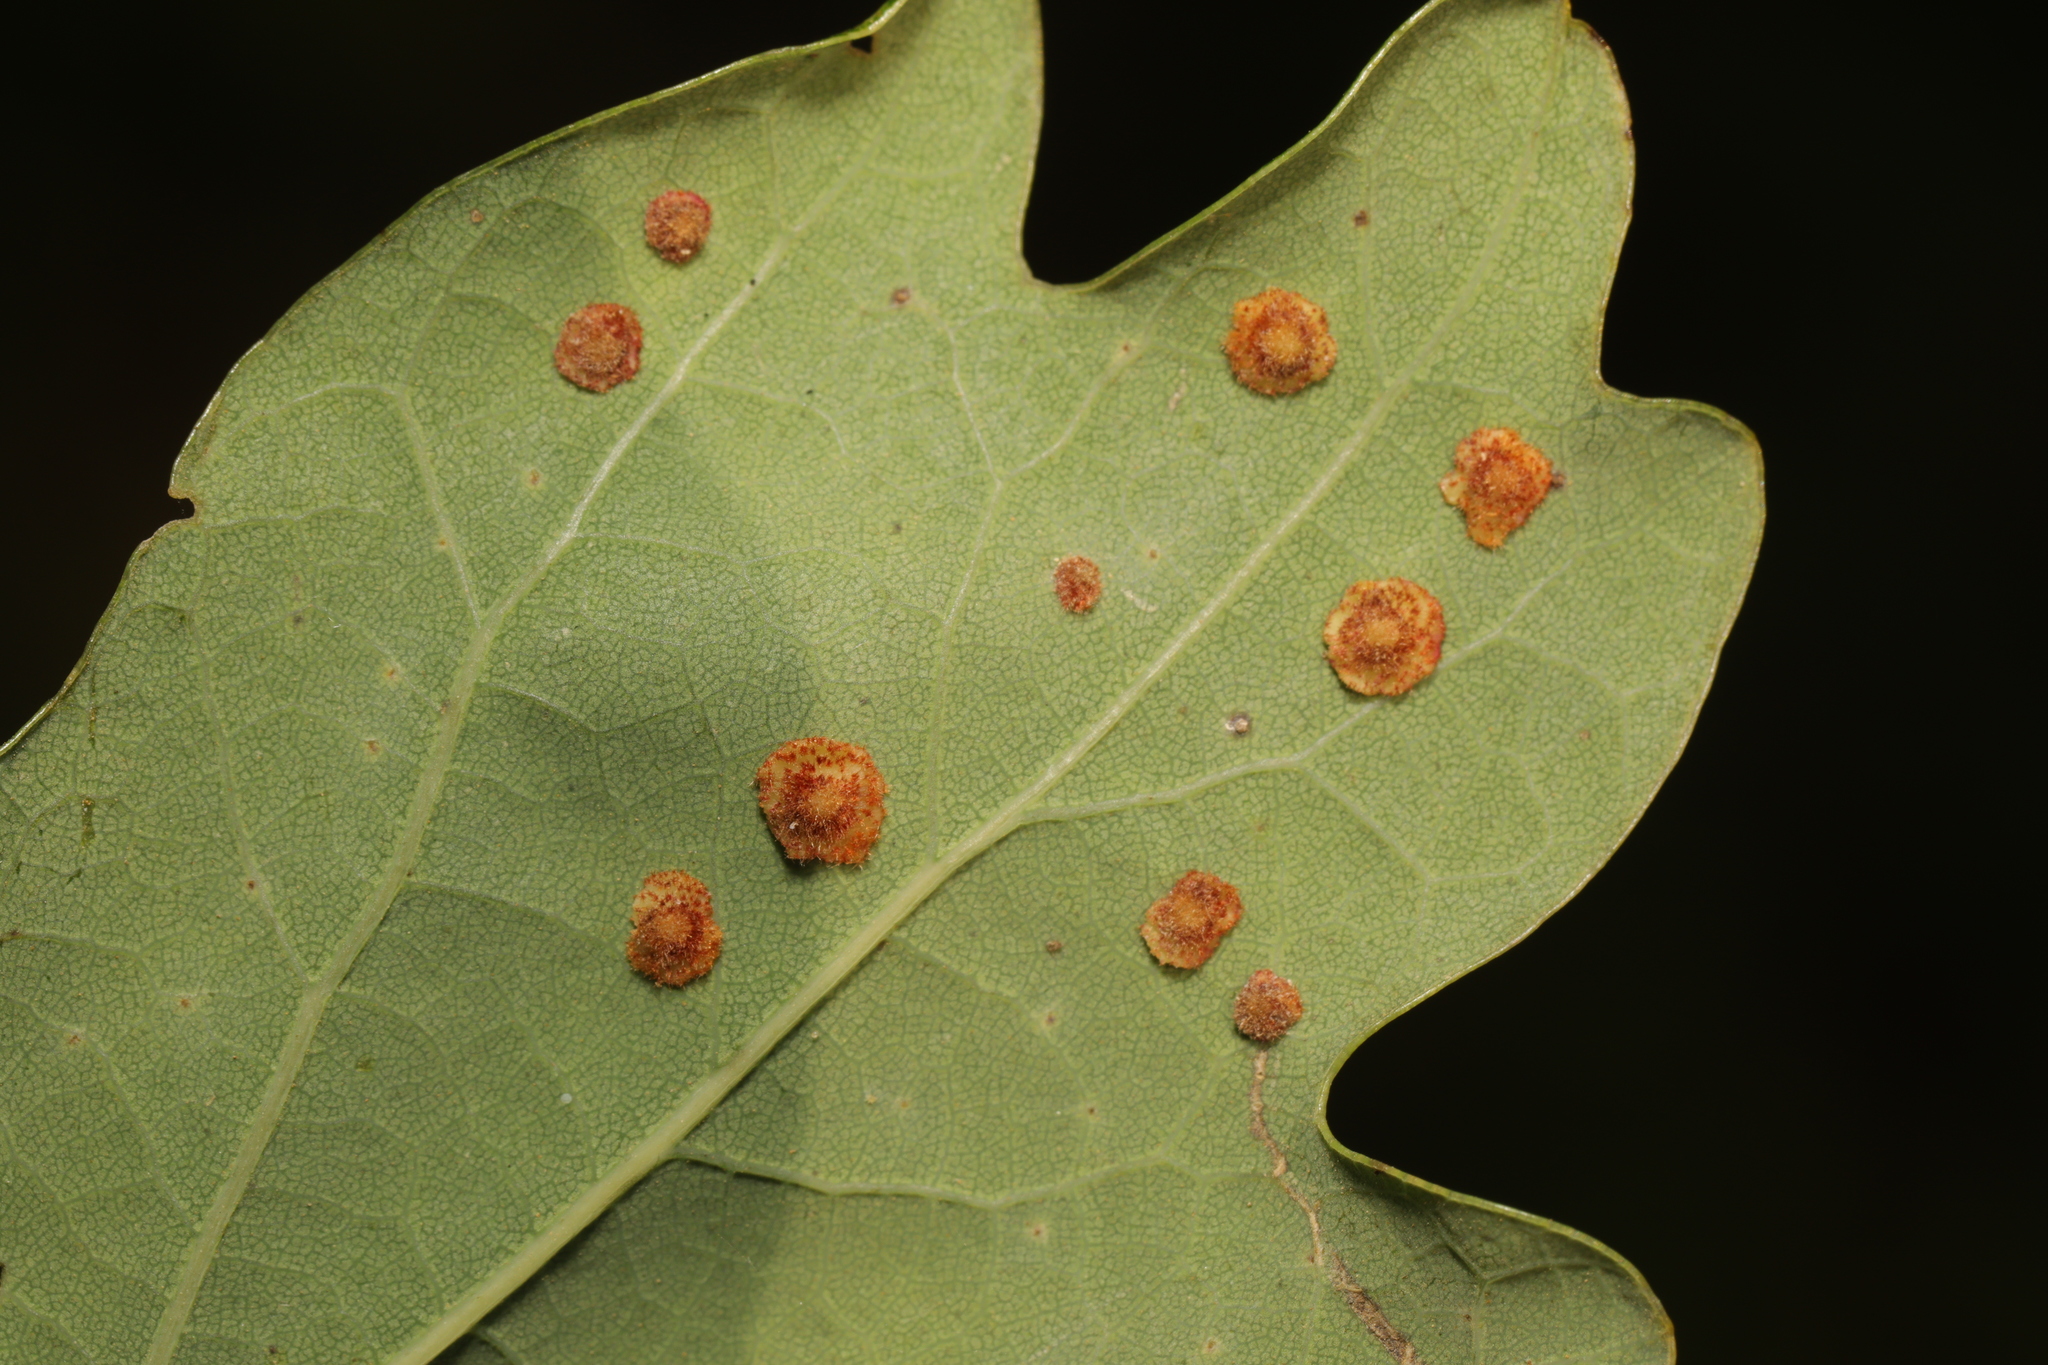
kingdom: Animalia
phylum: Arthropoda
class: Insecta
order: Hymenoptera
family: Cynipidae
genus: Neuroterus
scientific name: Neuroterus quercusbaccarum
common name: Common spangle gall
